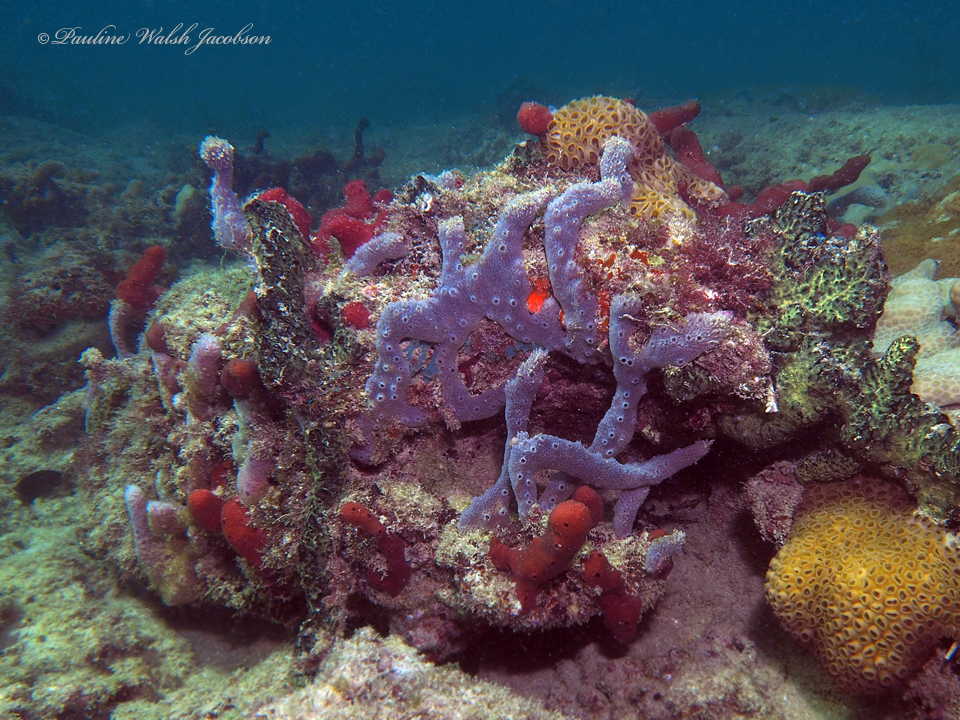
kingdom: Animalia
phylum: Porifera
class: Demospongiae
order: Haplosclerida
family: Niphatidae
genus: Niphates
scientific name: Niphates erecta
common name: Lavender rope sponge
